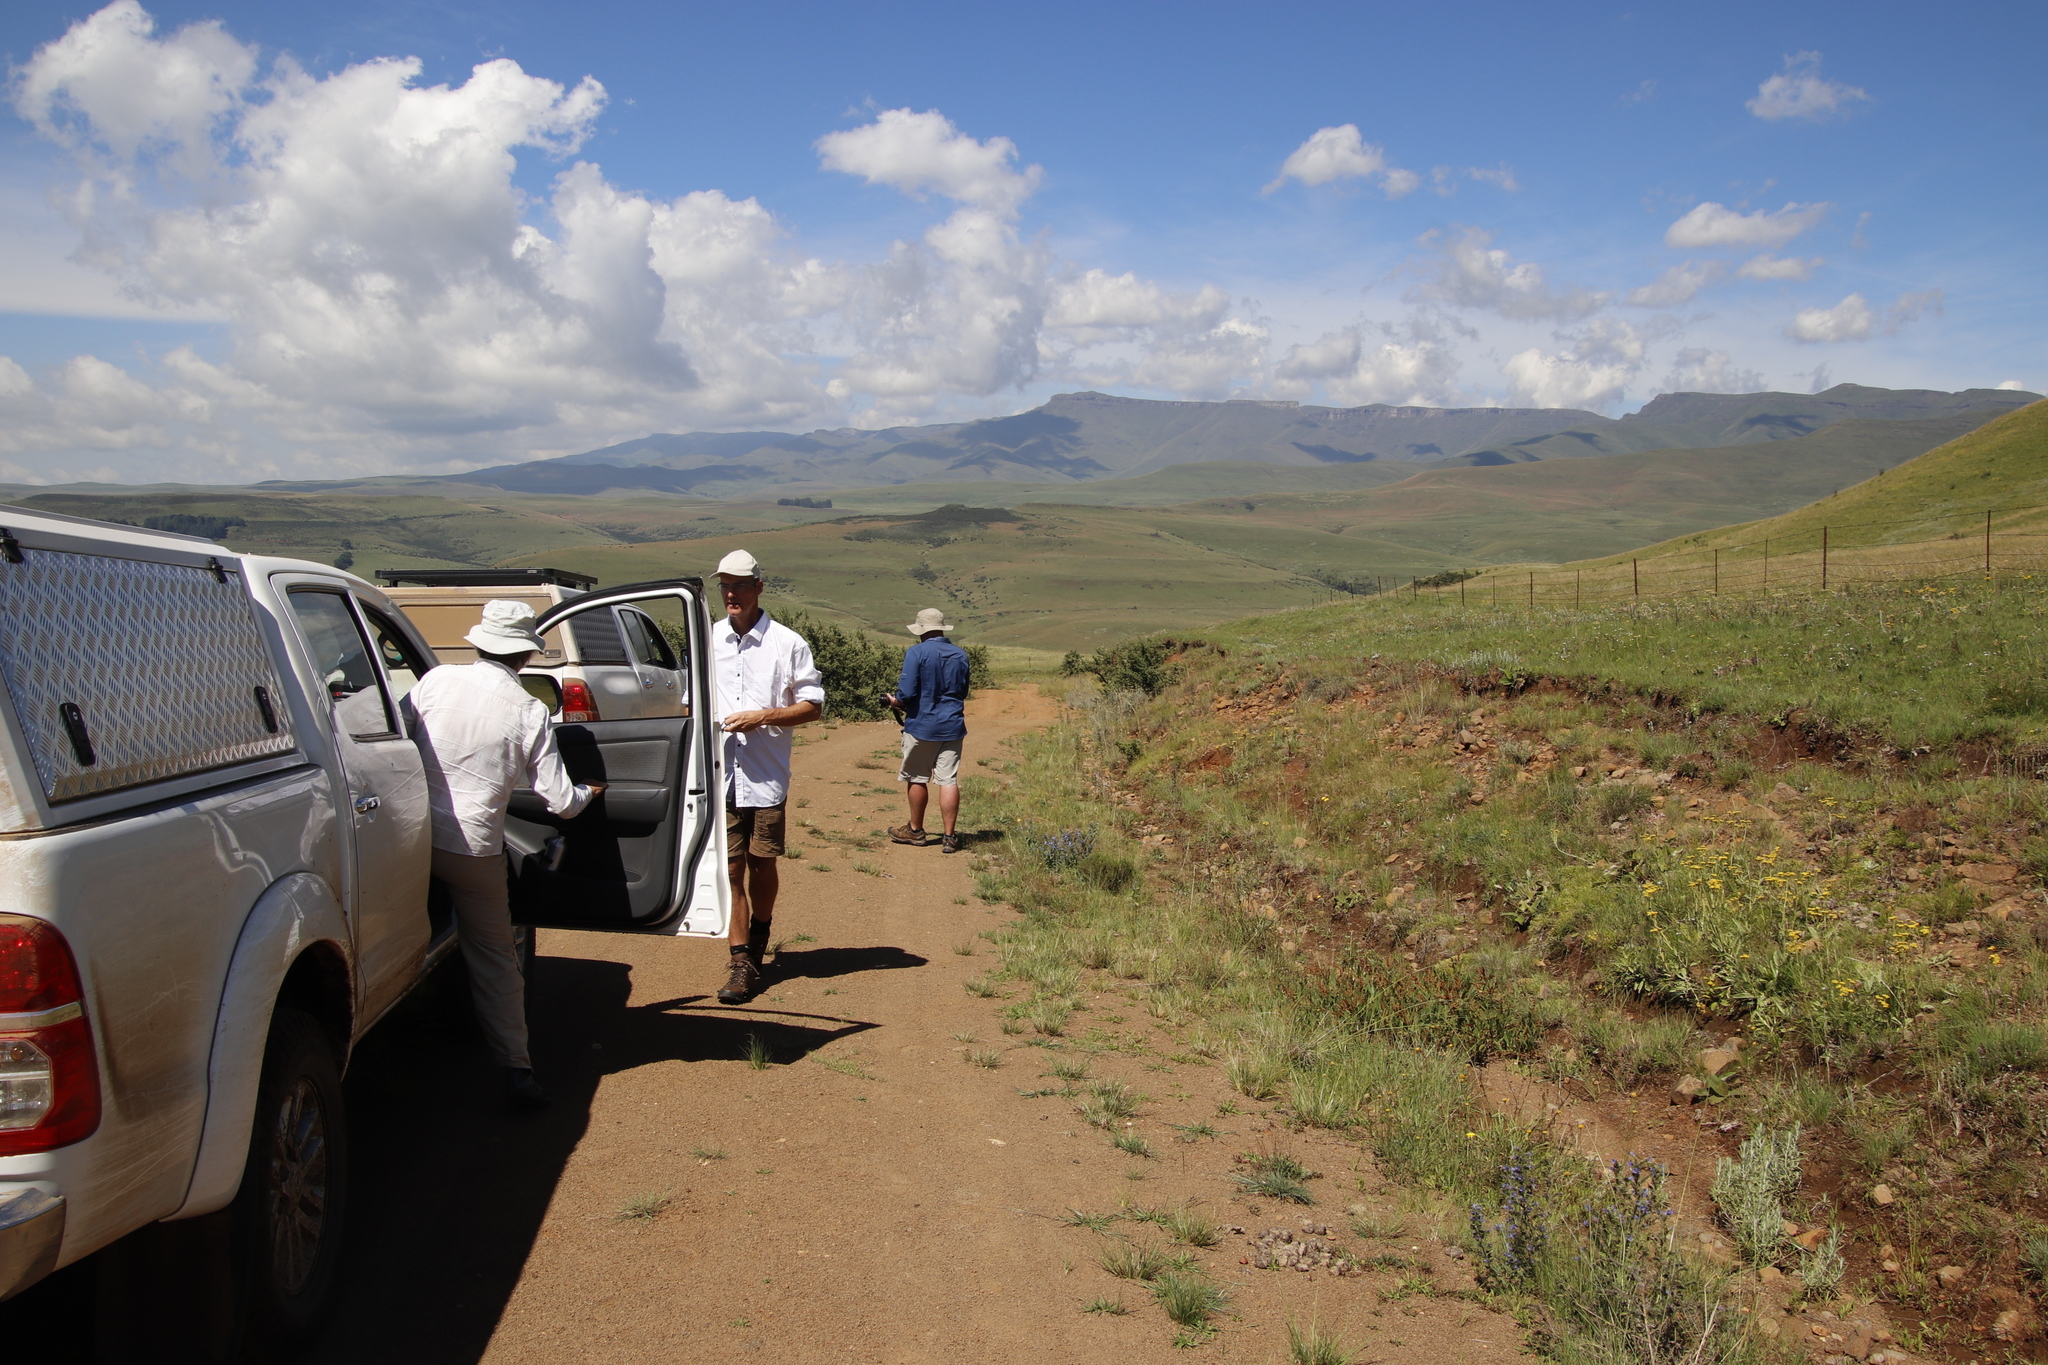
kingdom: Plantae
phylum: Tracheophyta
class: Magnoliopsida
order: Rosales
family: Rosaceae
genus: Leucosidea
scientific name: Leucosidea sericea
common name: Oldwood
